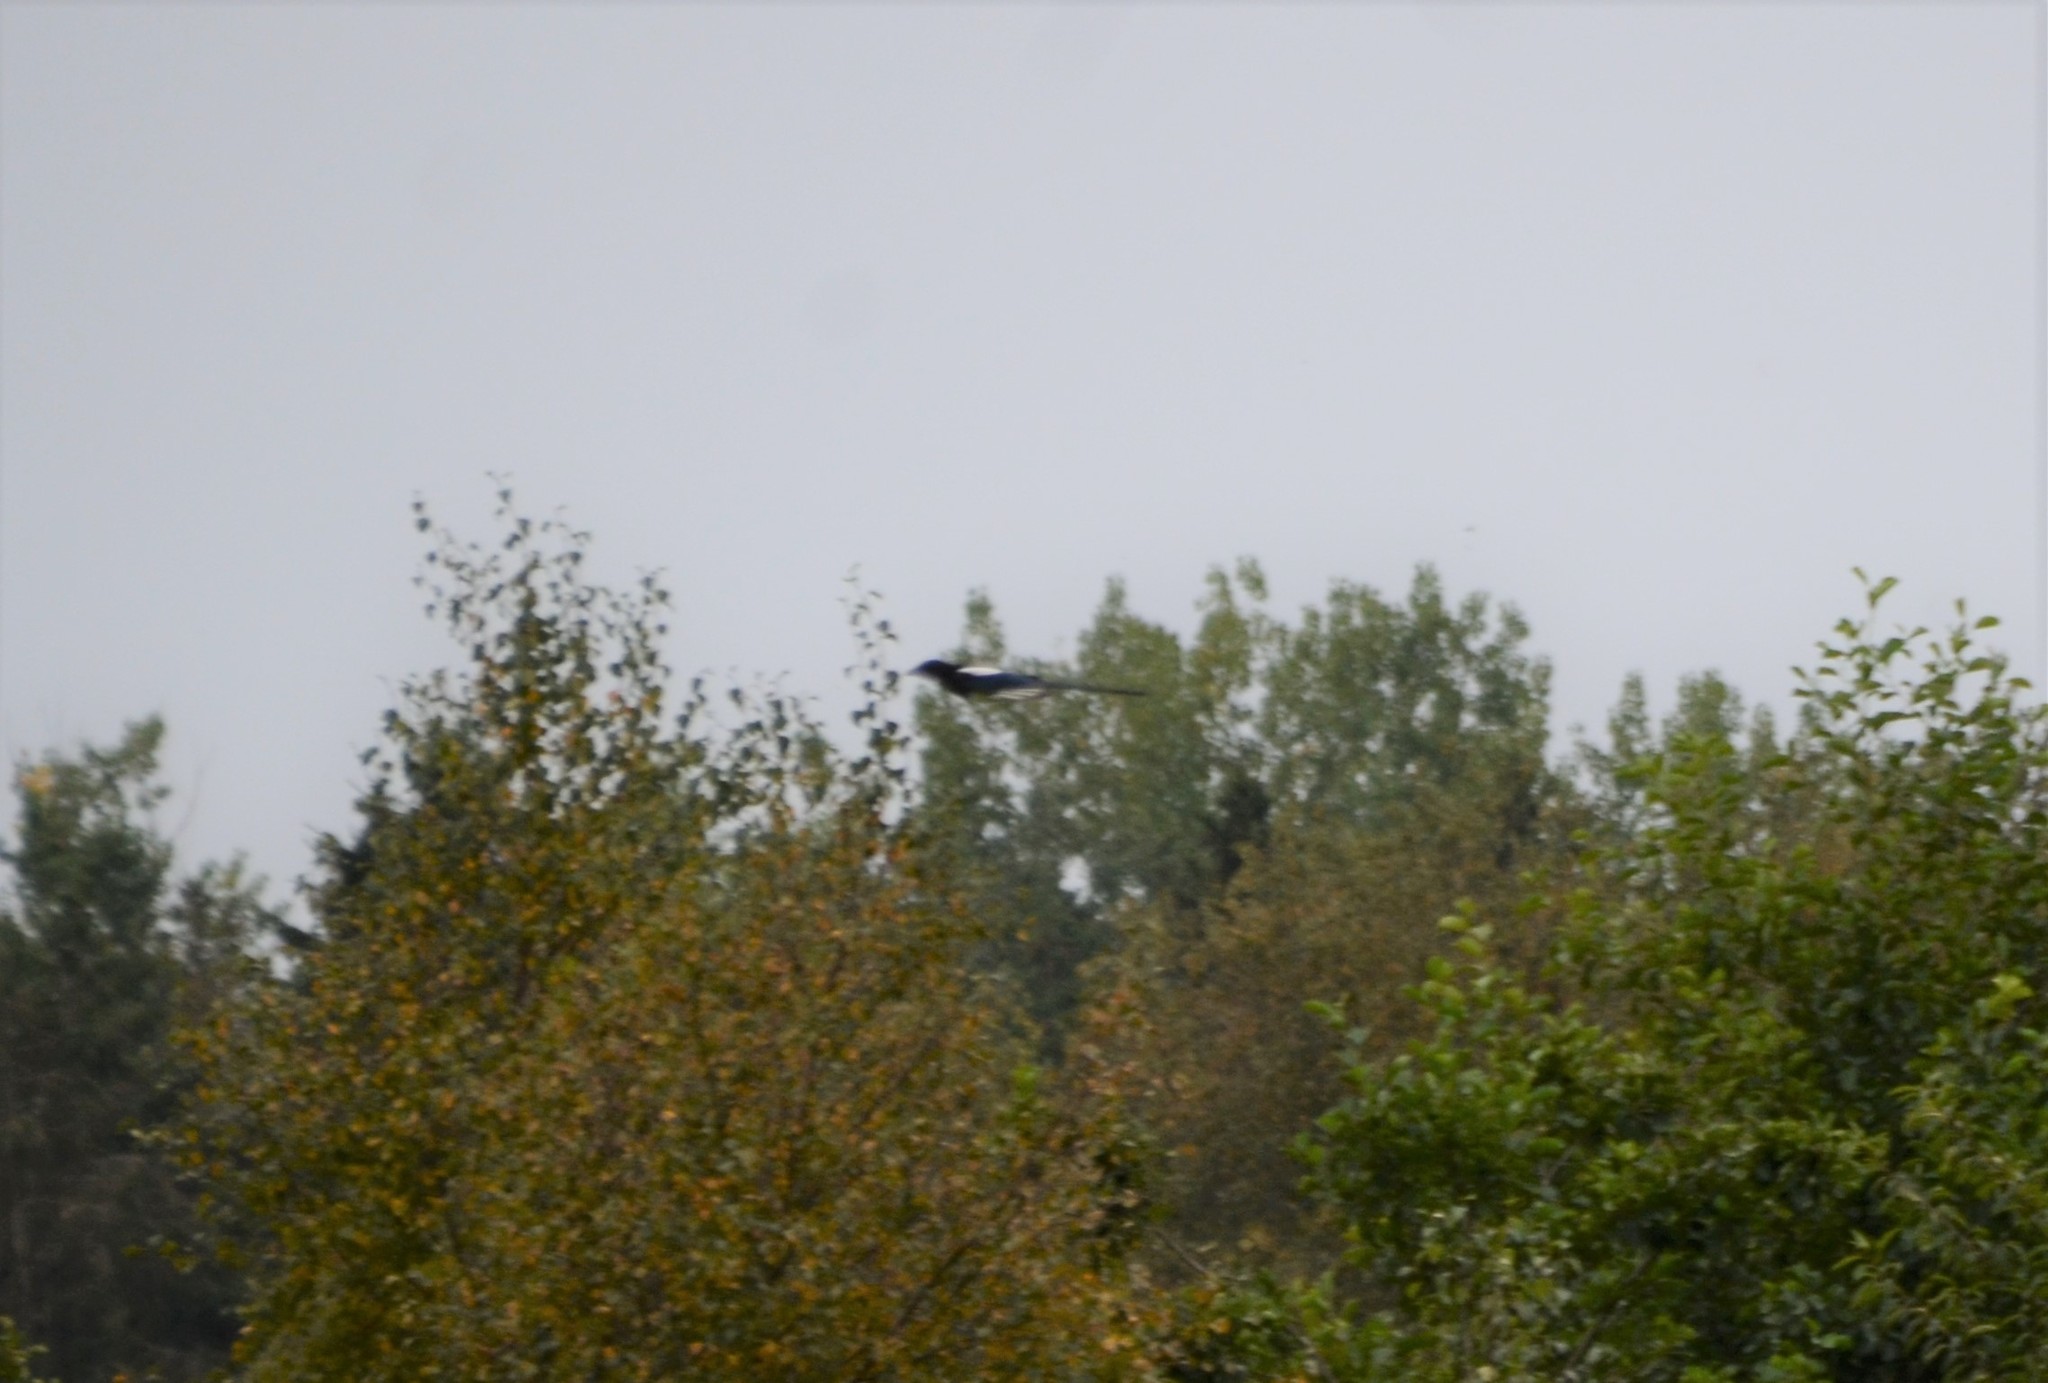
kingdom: Animalia
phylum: Chordata
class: Aves
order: Passeriformes
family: Corvidae
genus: Pica
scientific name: Pica pica
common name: Eurasian magpie
